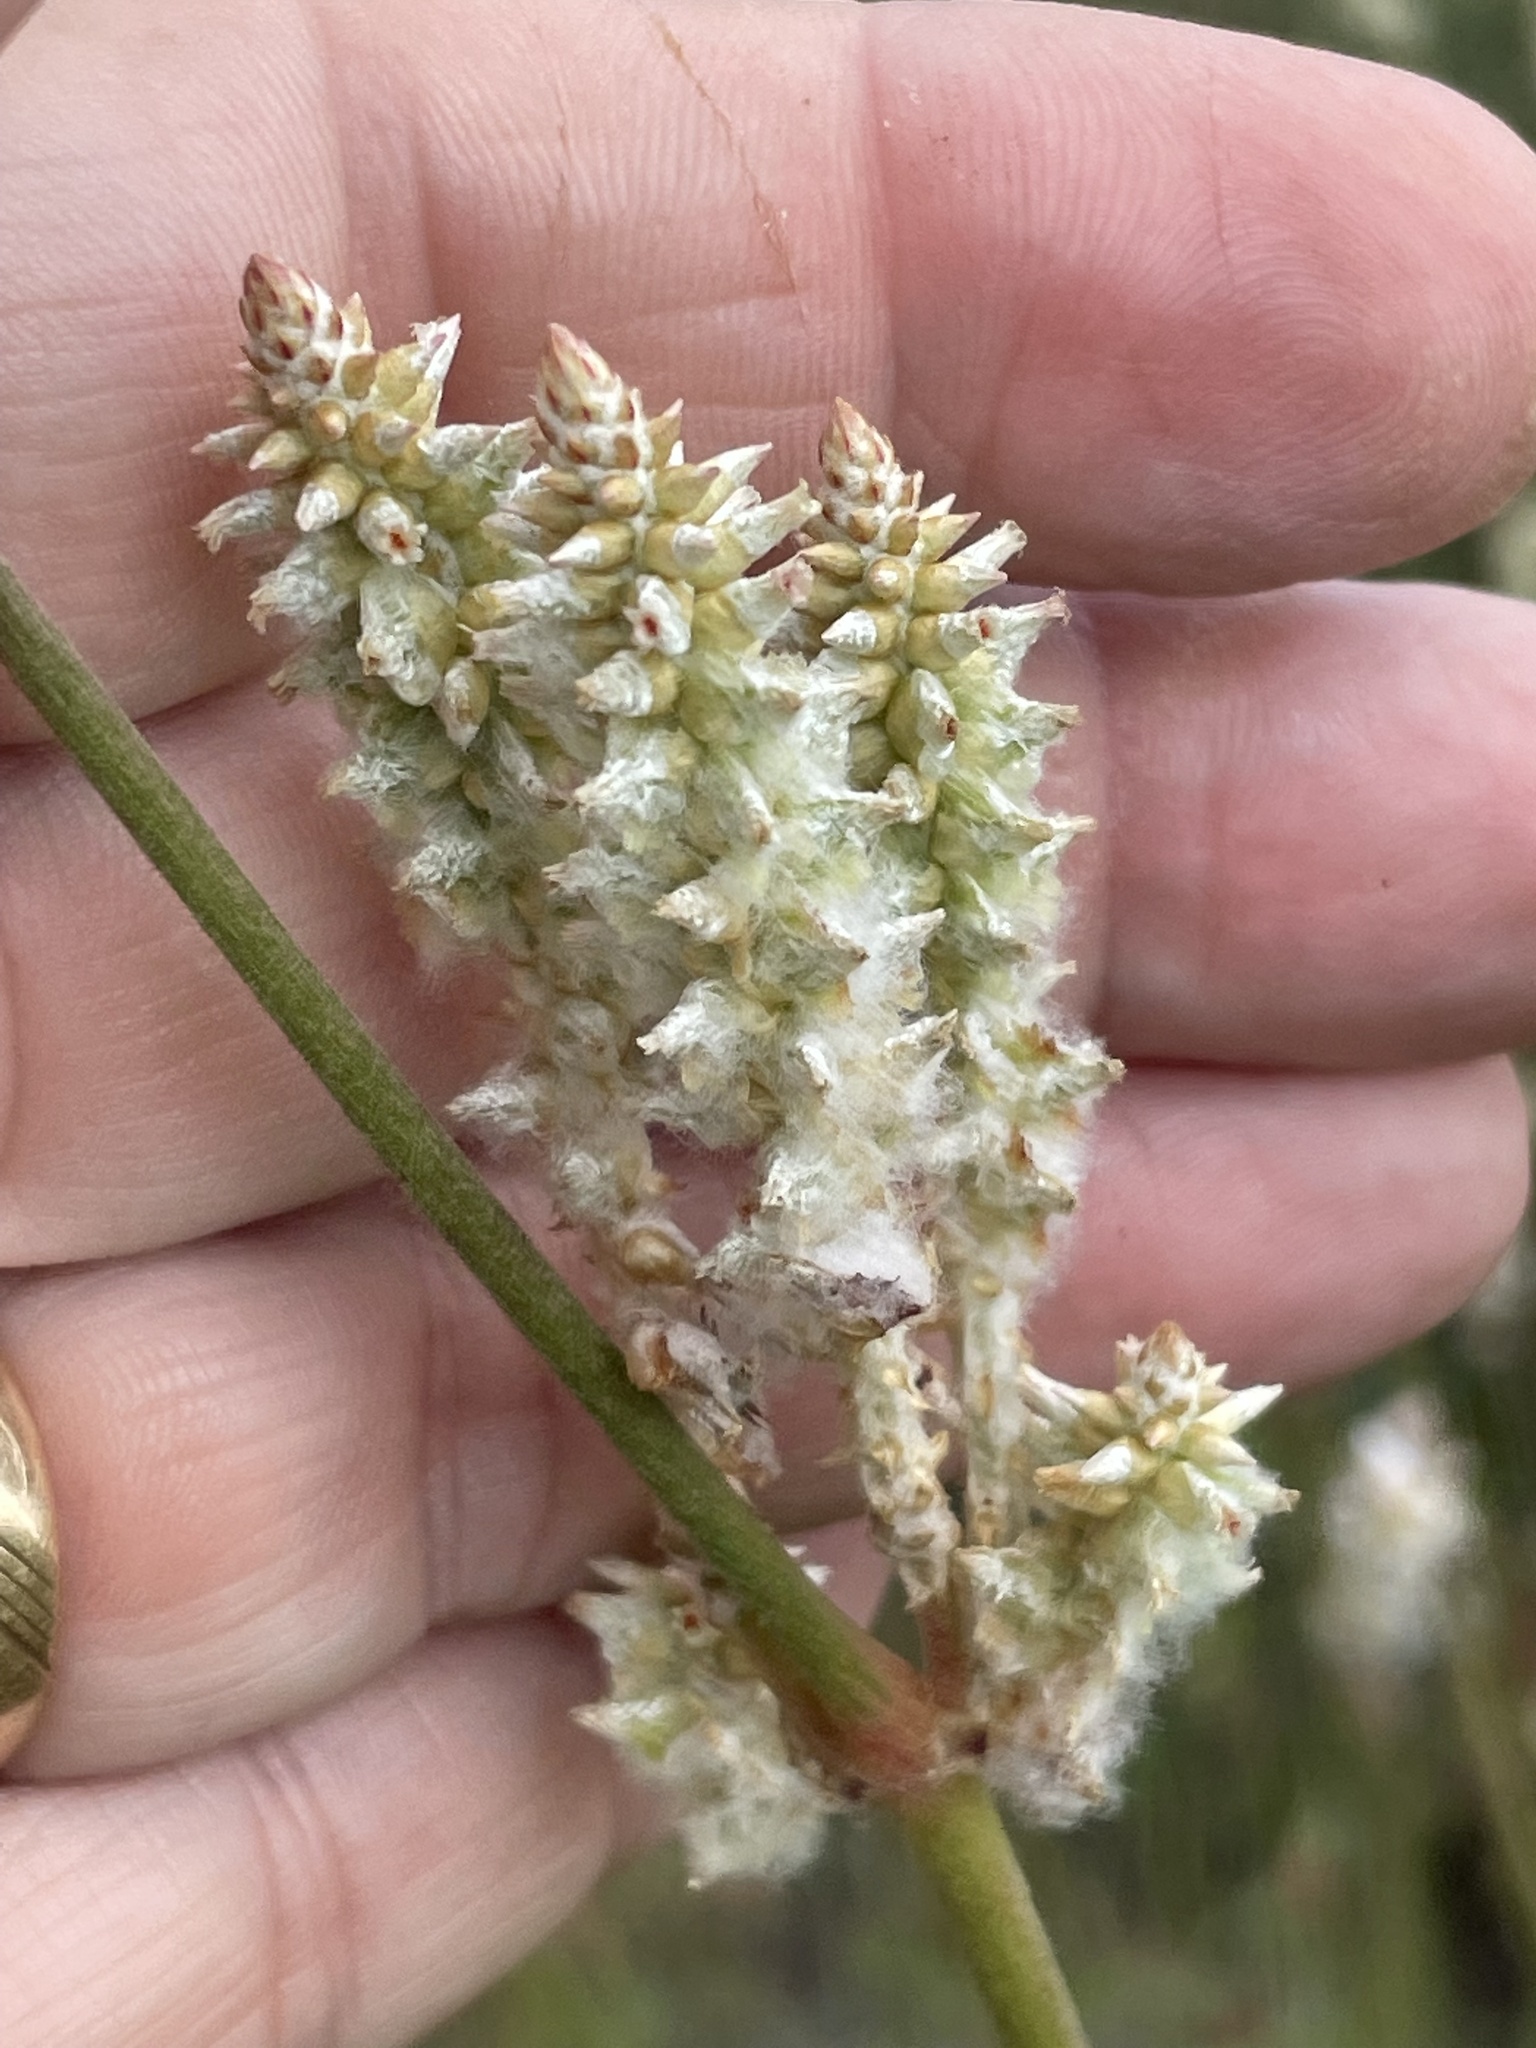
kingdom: Plantae
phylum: Tracheophyta
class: Magnoliopsida
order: Caryophyllales
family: Amaranthaceae
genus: Froelichia
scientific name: Froelichia floridana
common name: Florida snake-cotton
